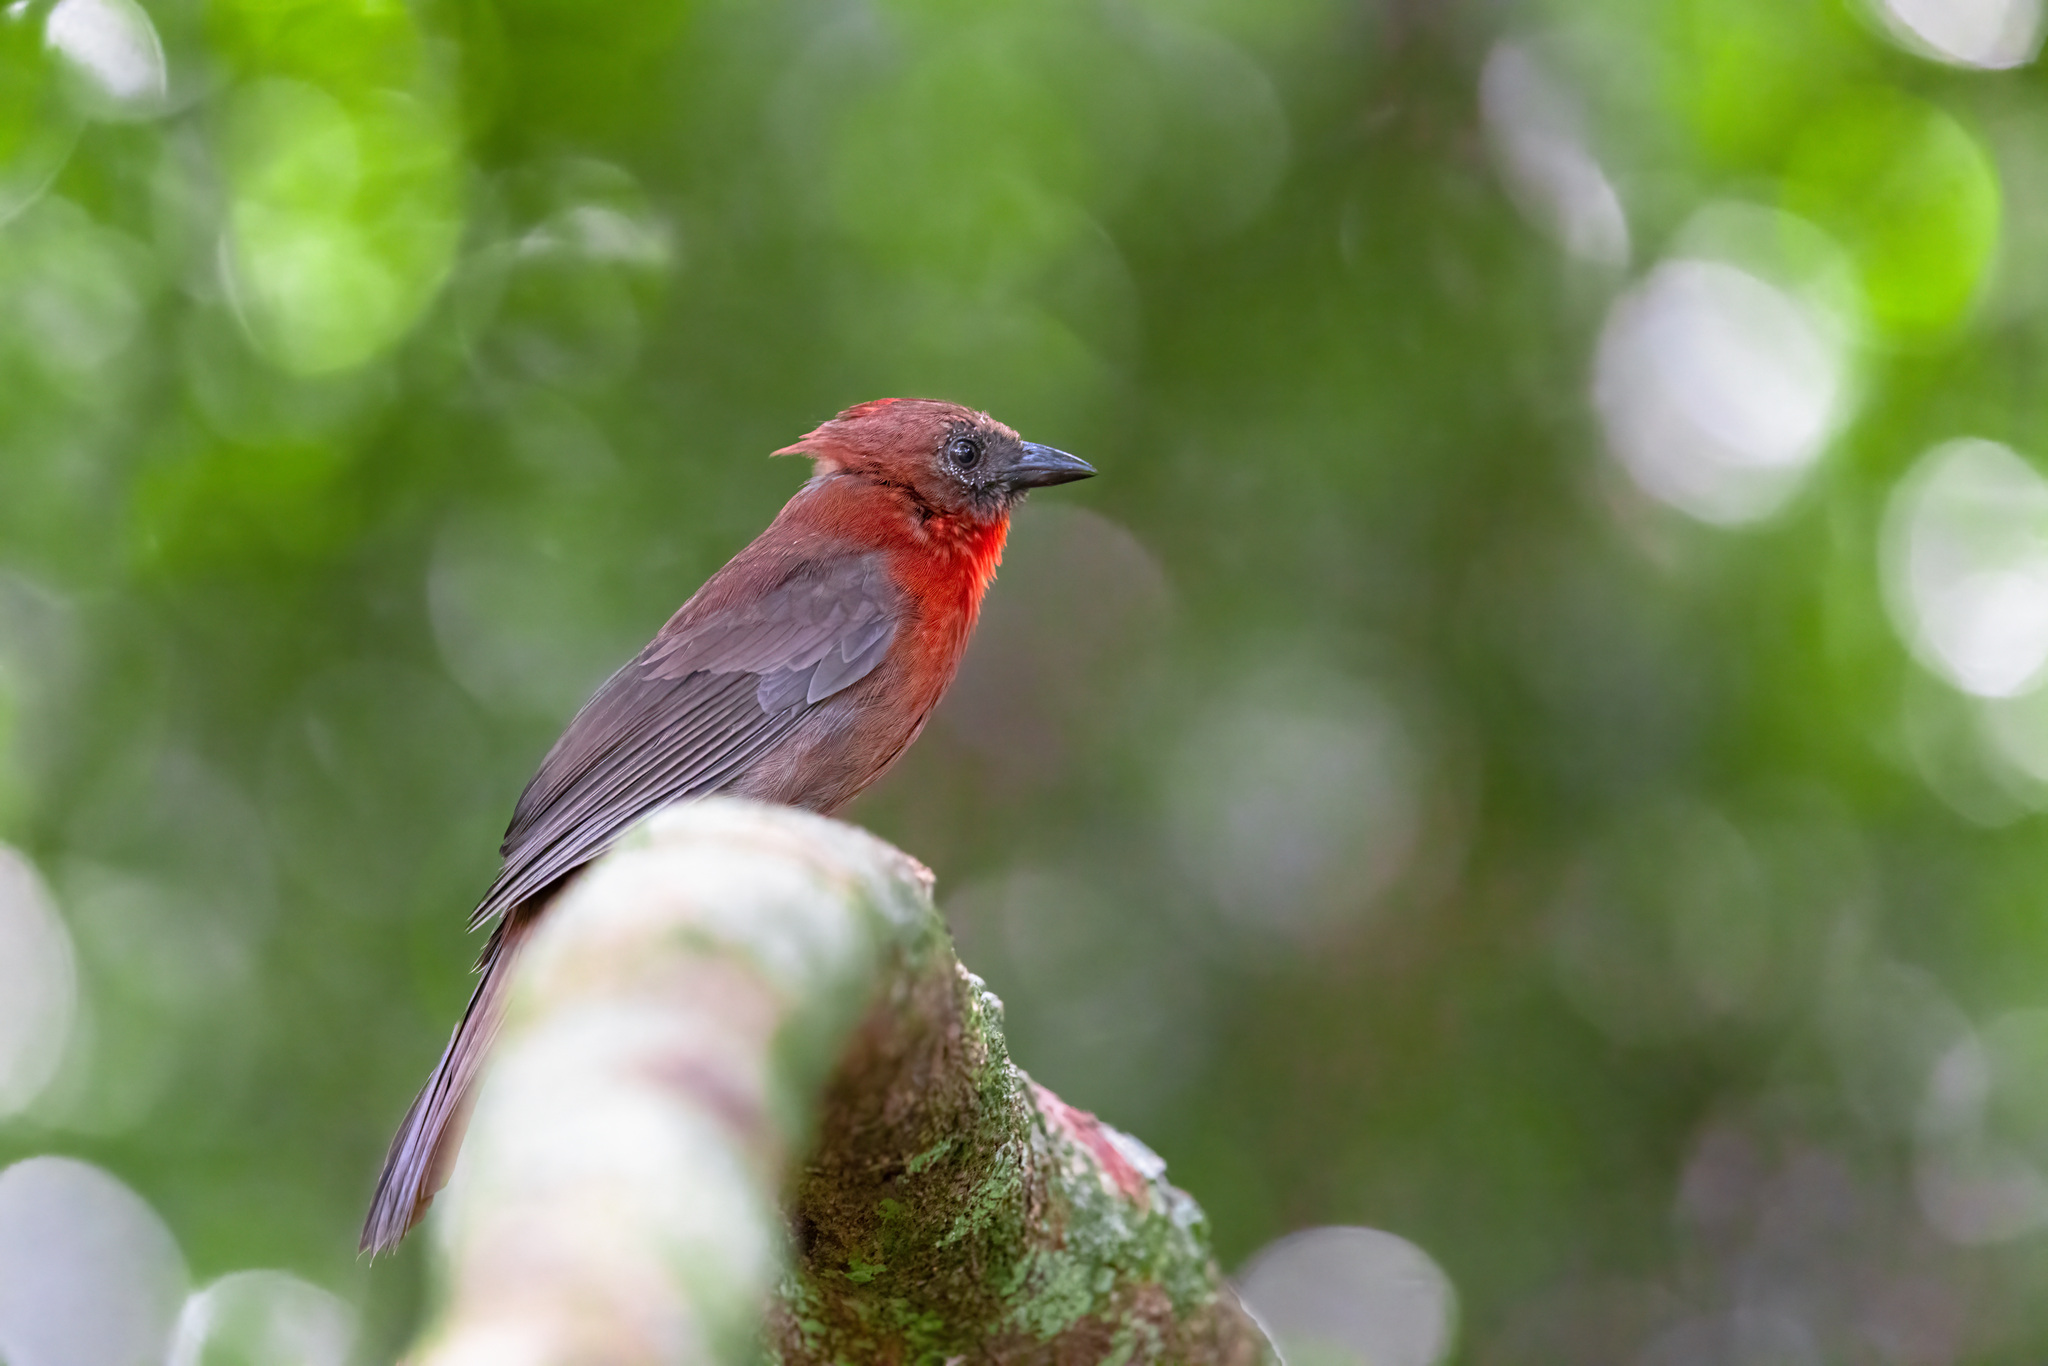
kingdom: Animalia
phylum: Chordata
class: Aves
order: Passeriformes
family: Cardinalidae
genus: Habia
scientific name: Habia fuscicauda
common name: Red-throated ant-tanager
